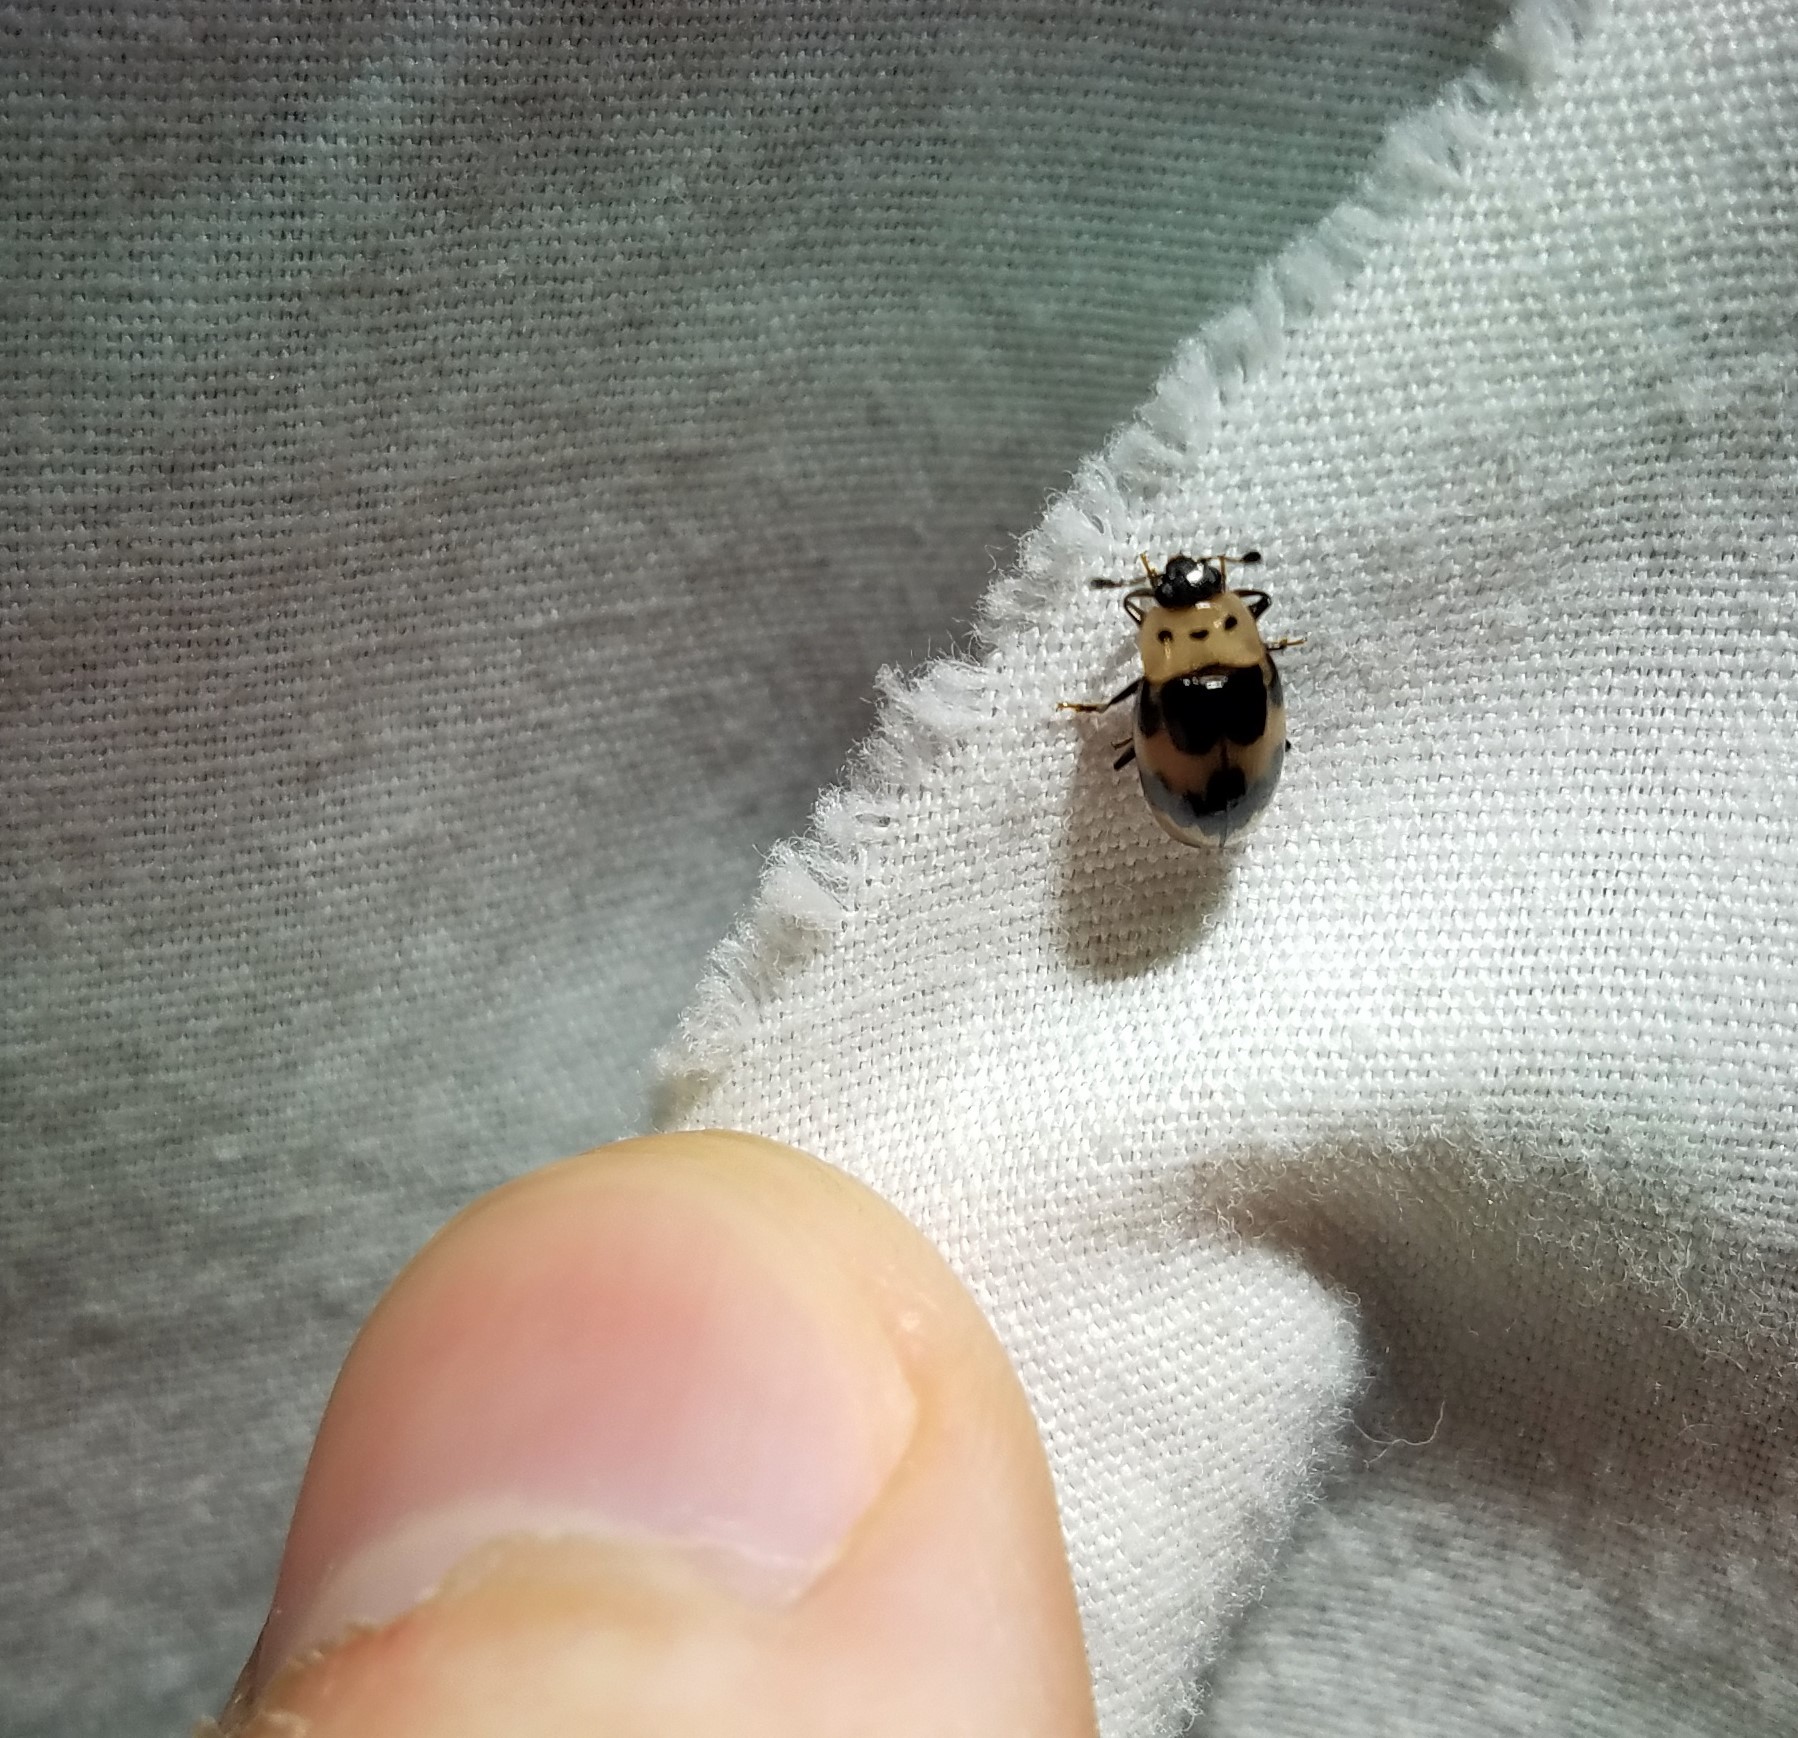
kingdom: Animalia
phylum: Arthropoda
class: Insecta
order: Coleoptera
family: Erotylidae
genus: Ischyrus
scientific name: Ischyrus quadripunctatus
